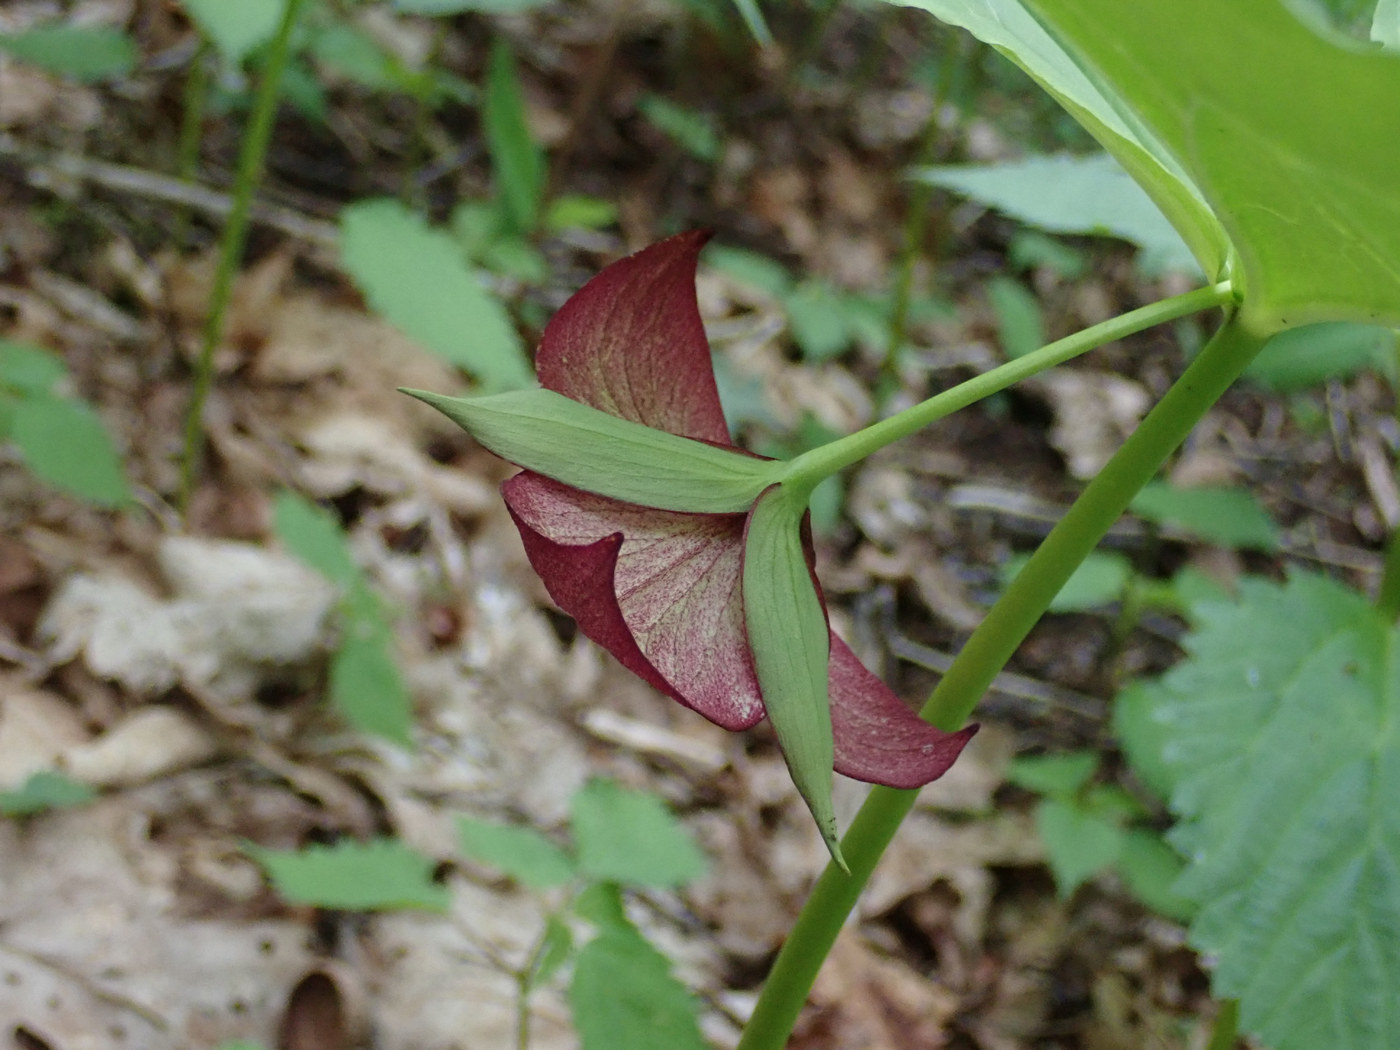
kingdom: Plantae
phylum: Tracheophyta
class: Liliopsida
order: Liliales
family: Melanthiaceae
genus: Trillium
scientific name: Trillium vaseyi
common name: Sweet trillium
